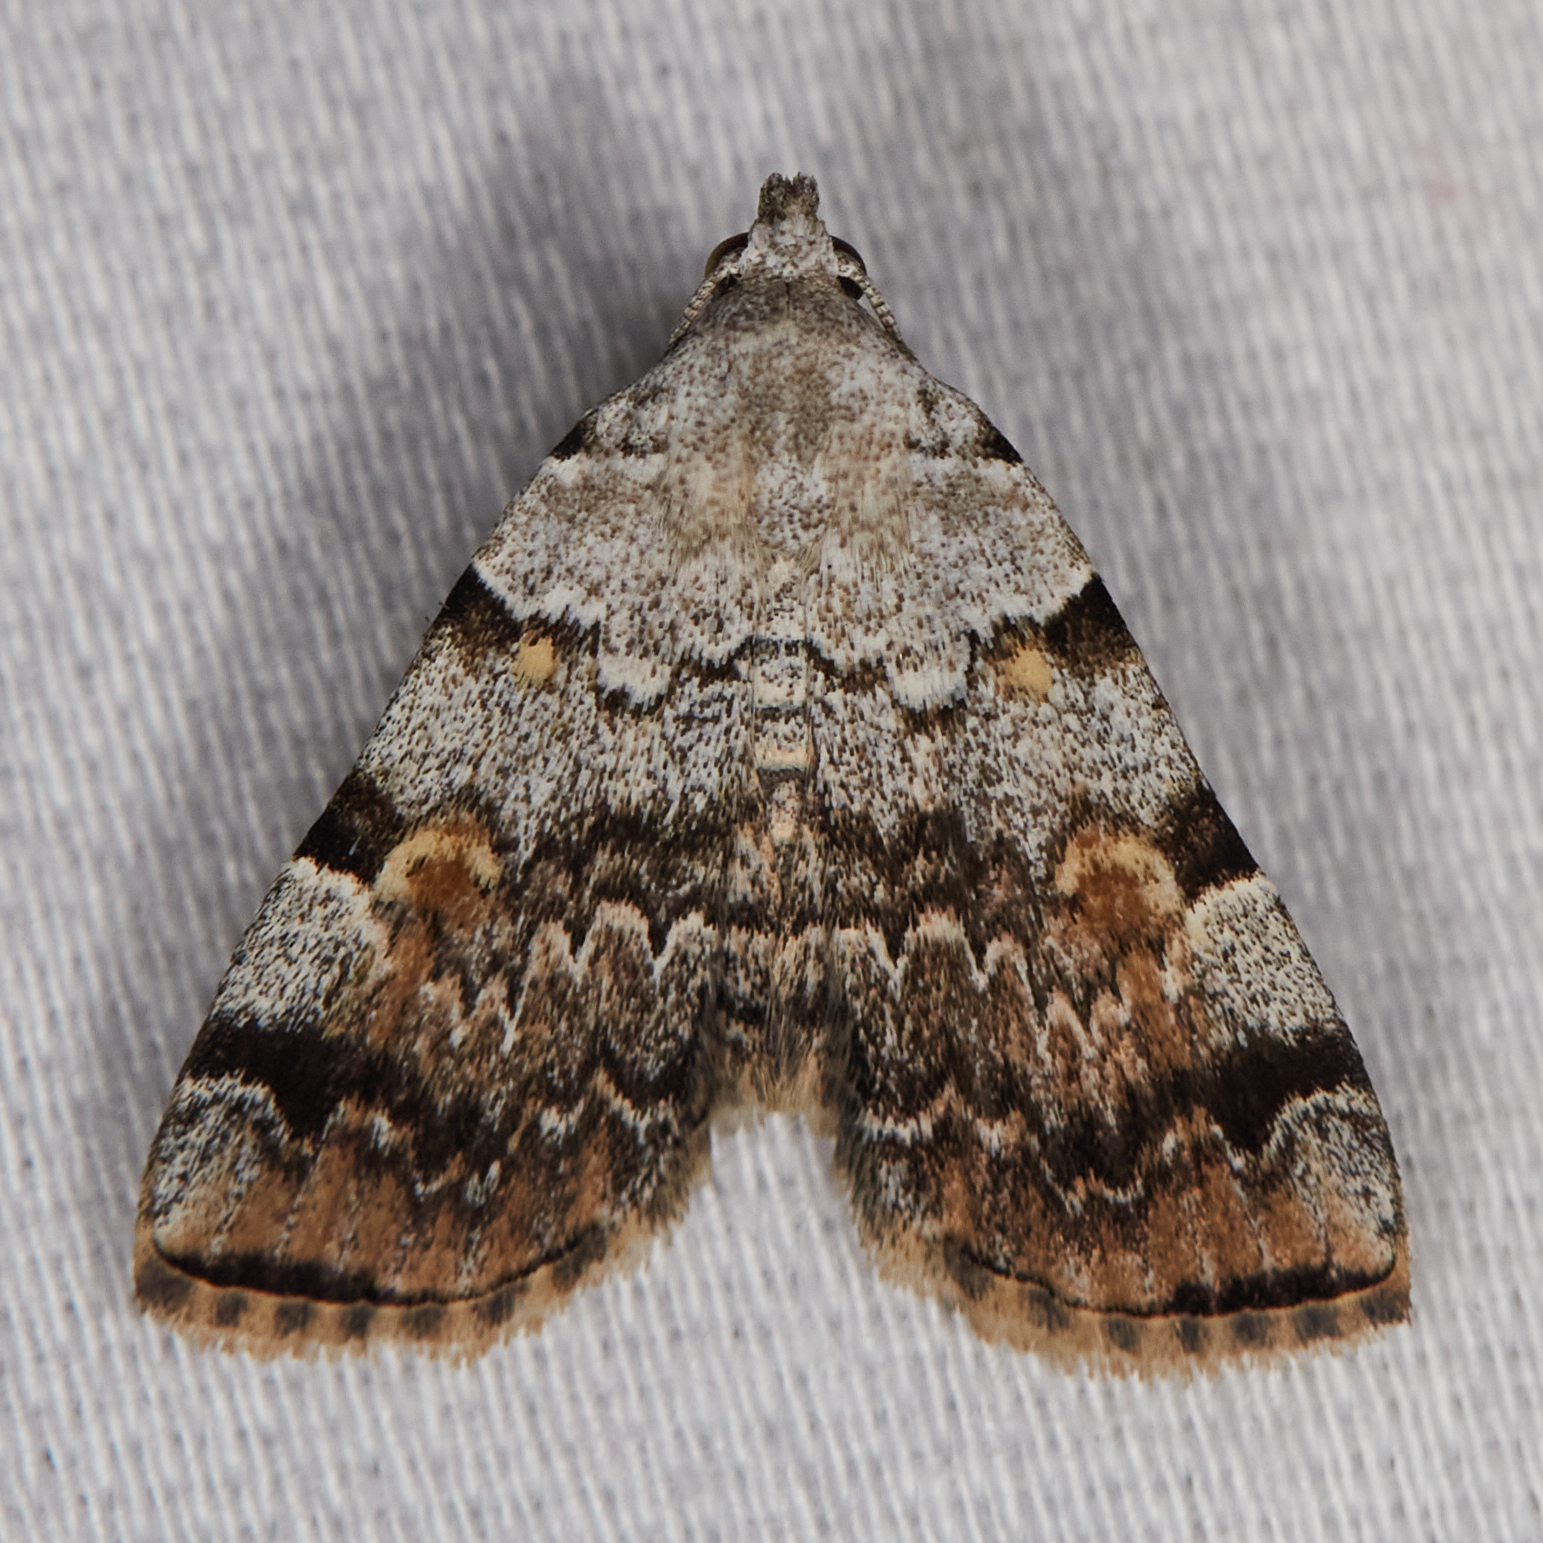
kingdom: Animalia
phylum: Arthropoda
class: Insecta
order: Lepidoptera
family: Erebidae
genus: Idia
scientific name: Idia americalis
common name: American idia moth
